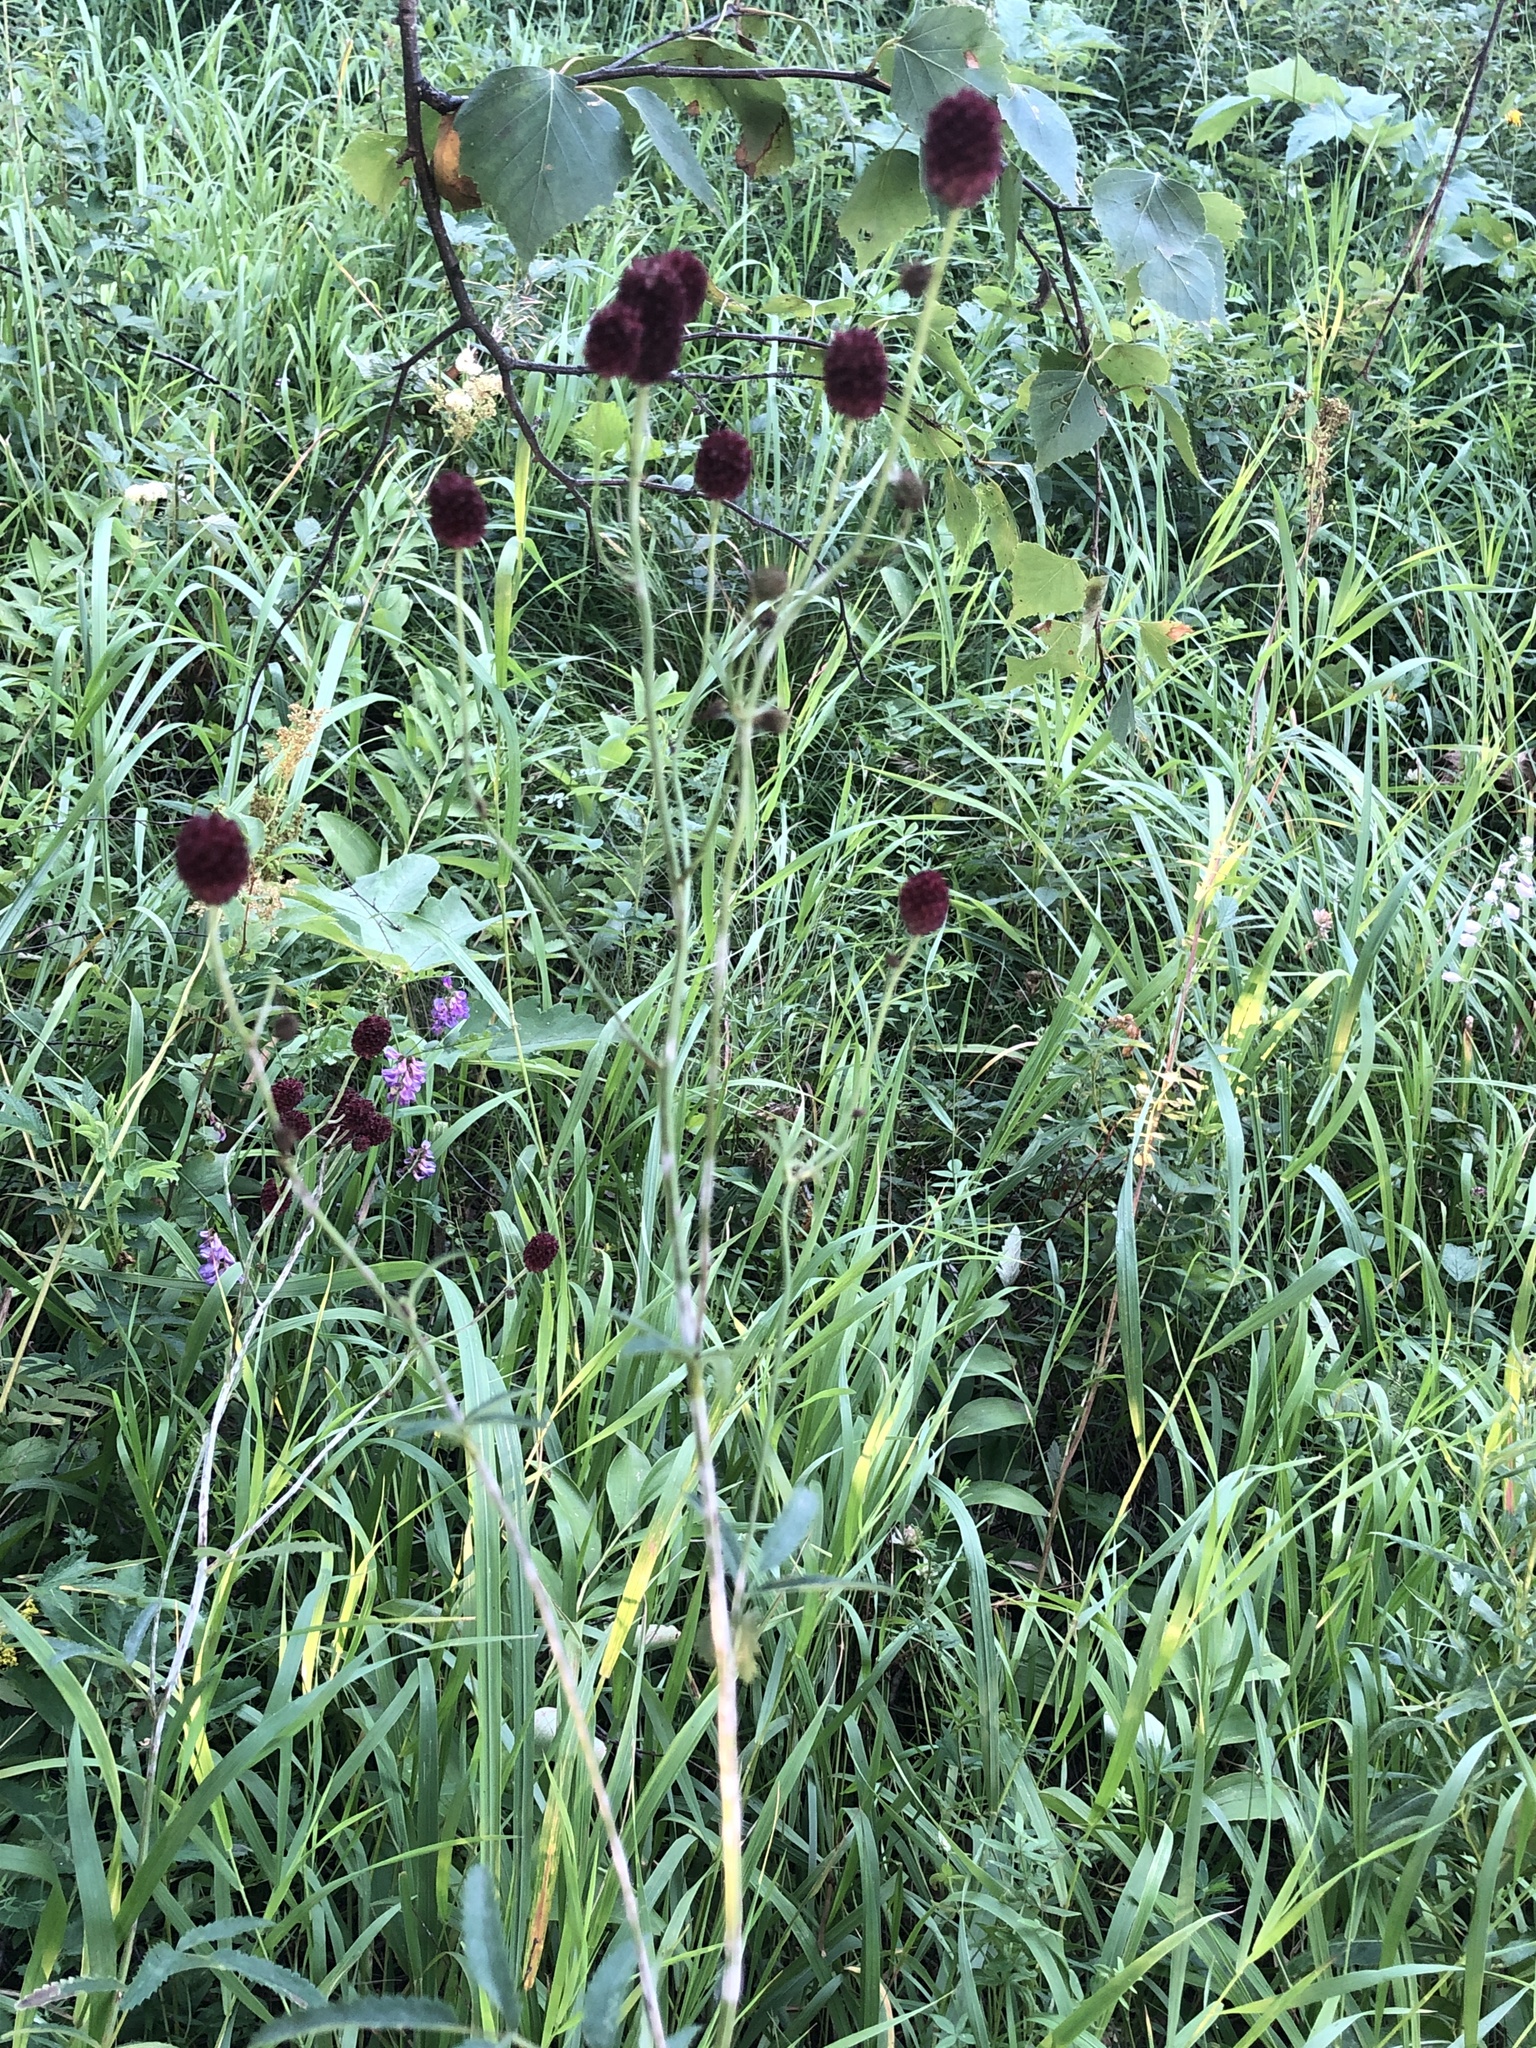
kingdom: Plantae
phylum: Tracheophyta
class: Magnoliopsida
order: Rosales
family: Rosaceae
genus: Sanguisorba
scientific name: Sanguisorba officinalis
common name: Great burnet
